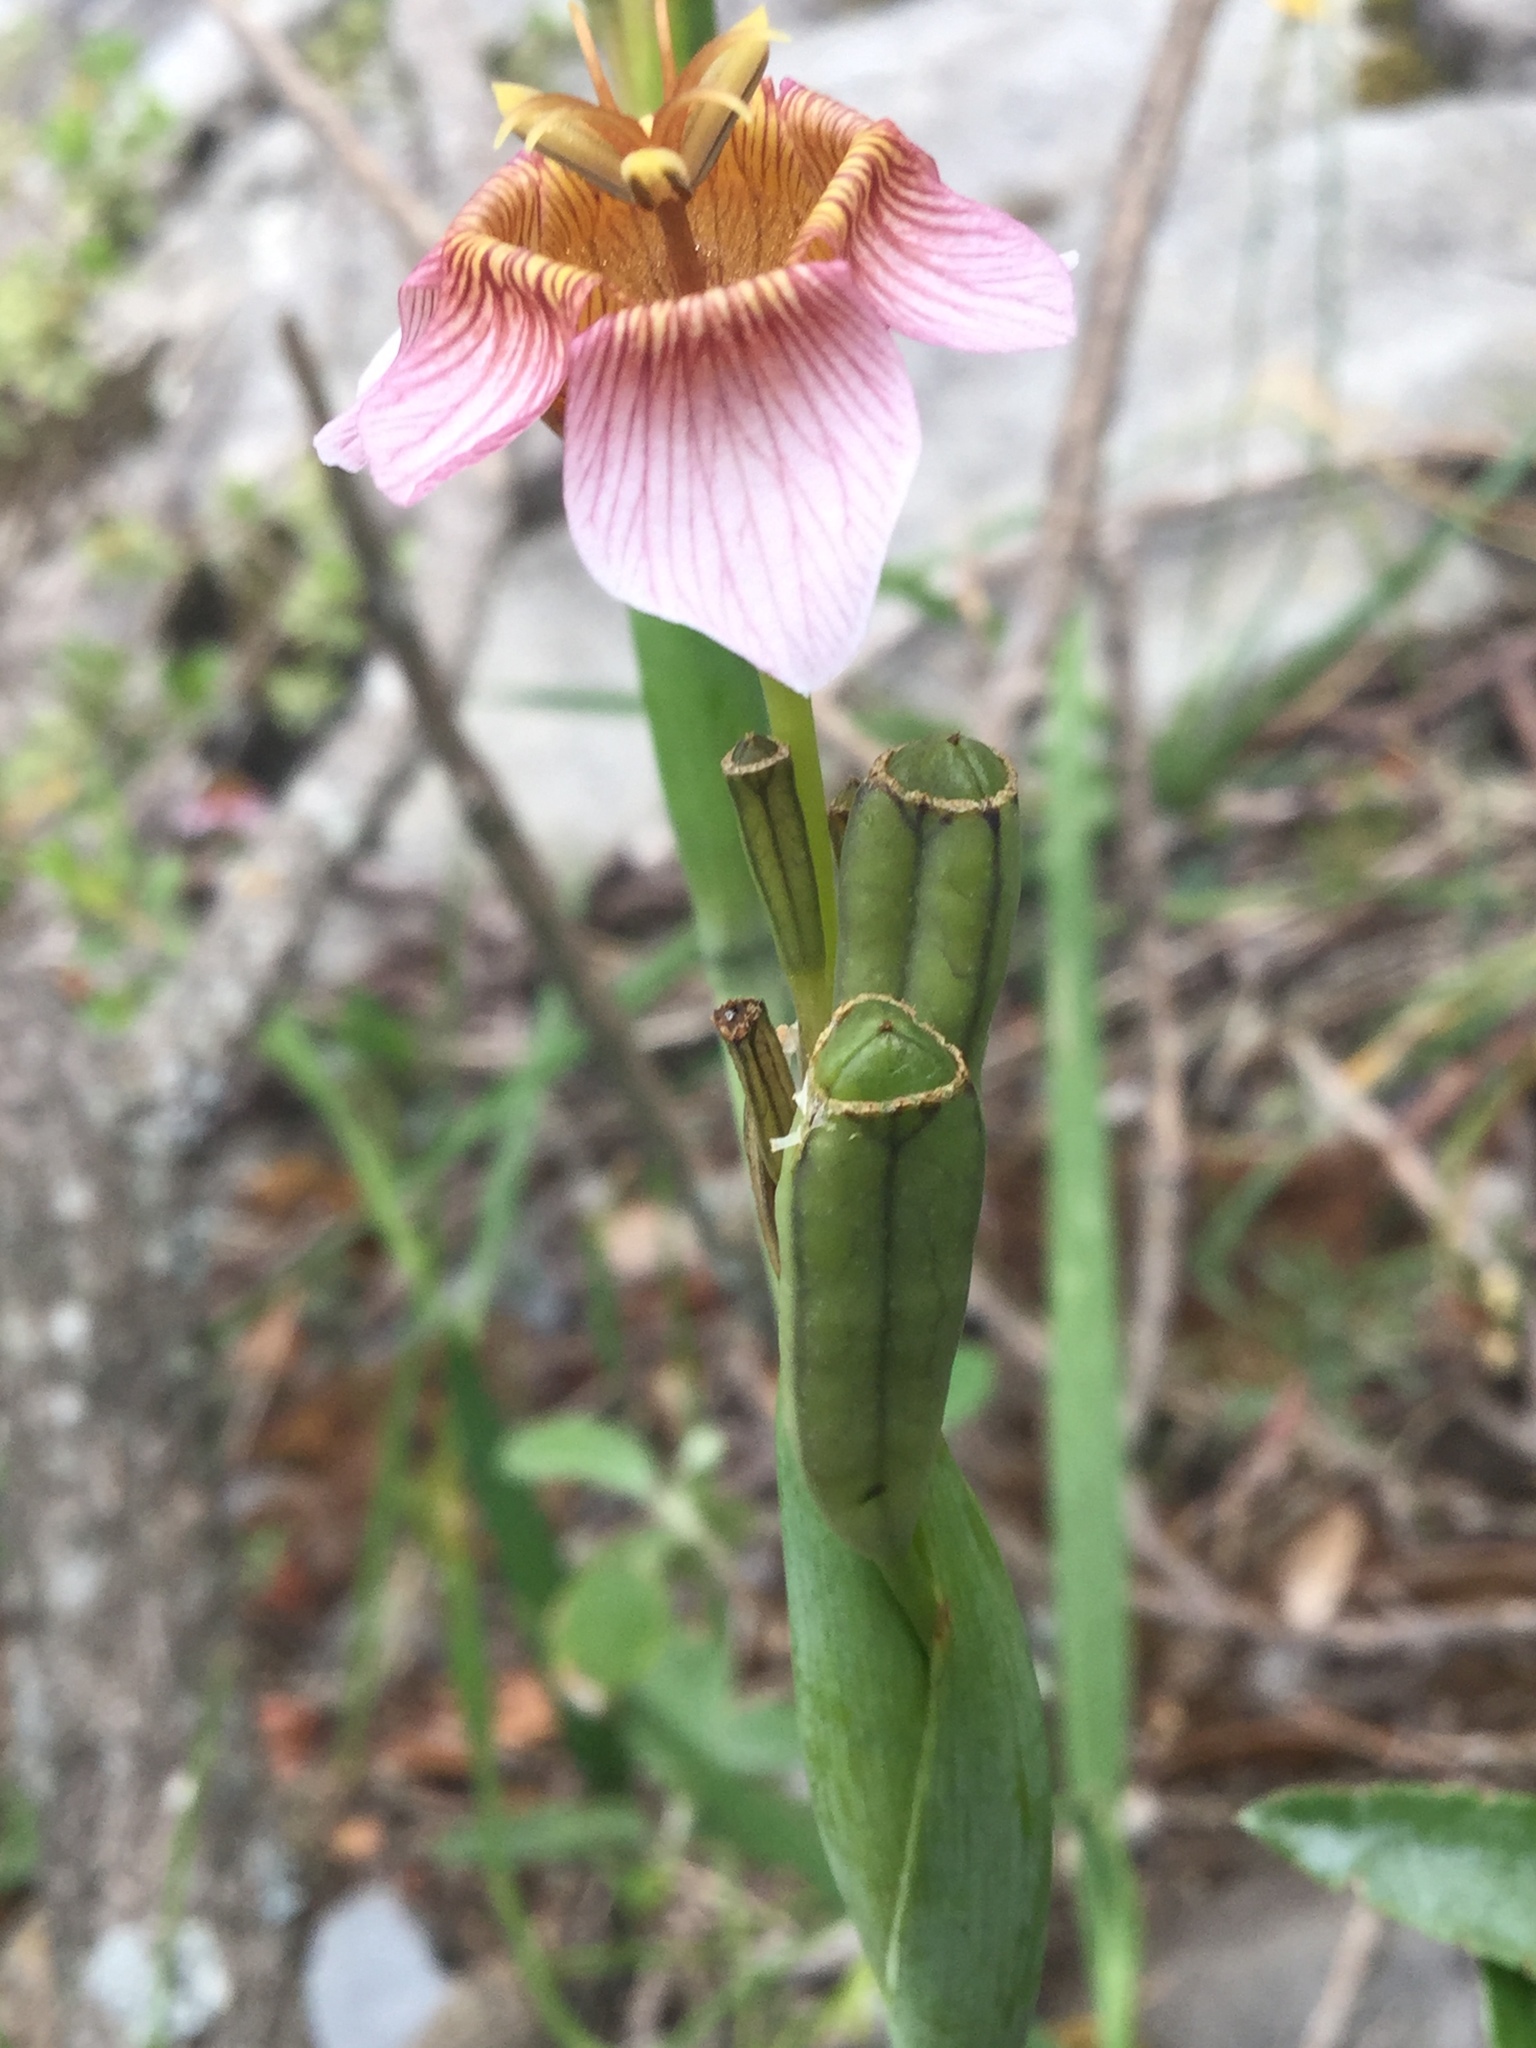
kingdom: Plantae
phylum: Tracheophyta
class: Liliopsida
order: Asparagales
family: Iridaceae
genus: Tigridia
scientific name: Tigridia multiflora
